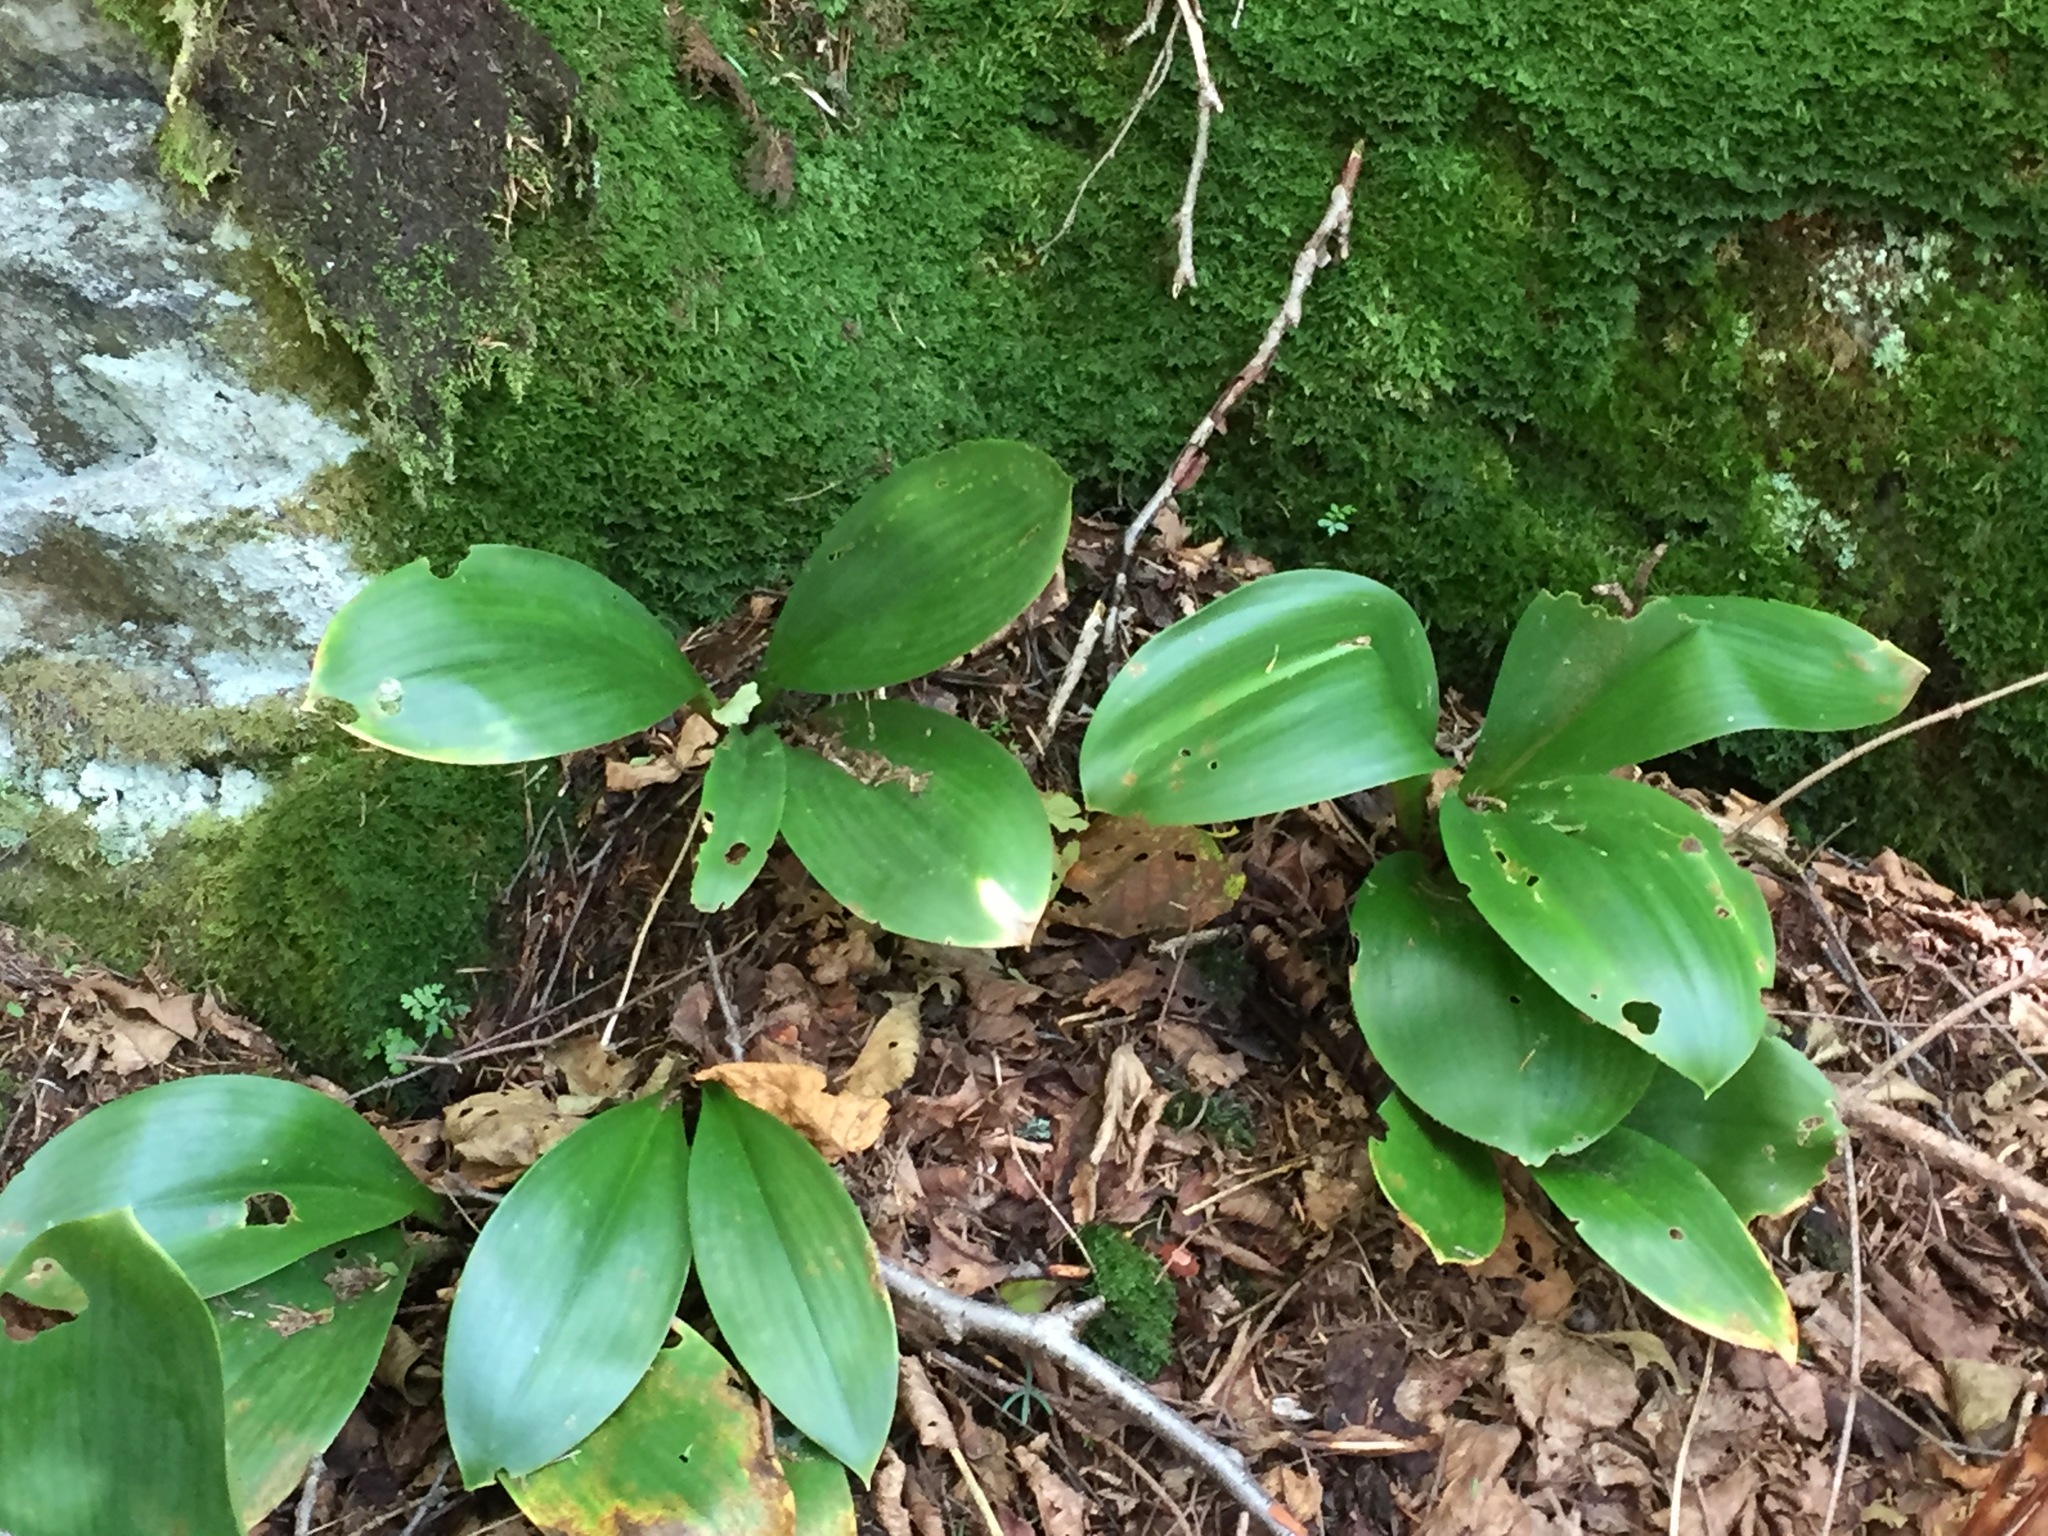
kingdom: Plantae
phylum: Tracheophyta
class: Liliopsida
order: Liliales
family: Liliaceae
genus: Clintonia
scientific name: Clintonia borealis
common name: Yellow clintonia
